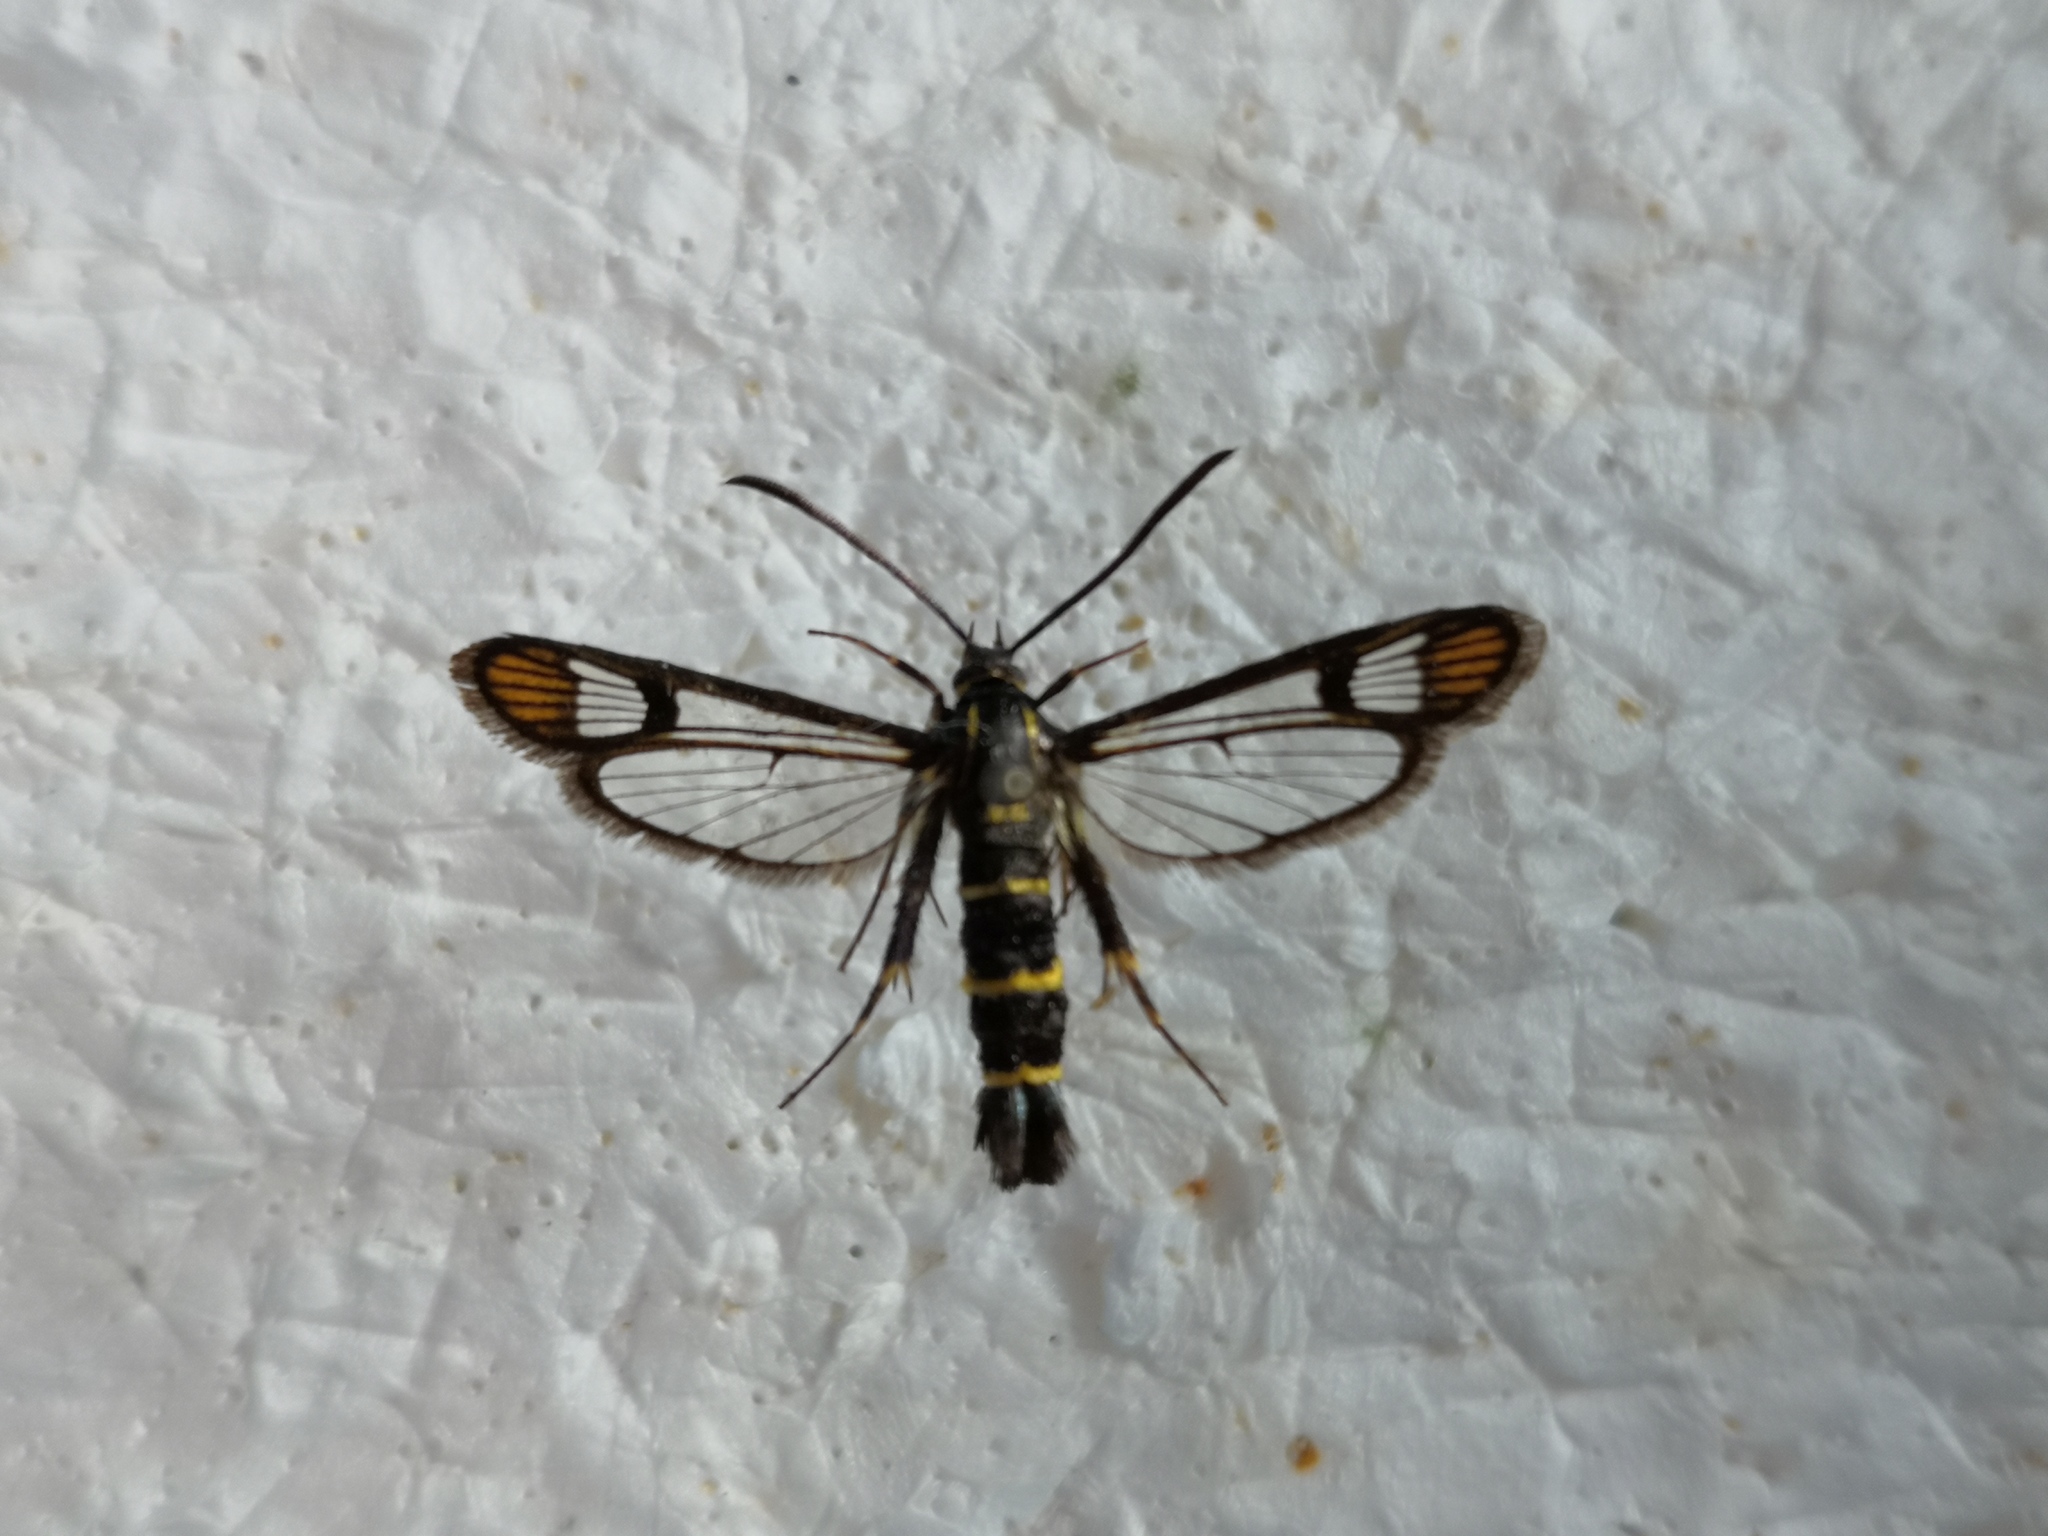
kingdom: Animalia
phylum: Arthropoda
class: Insecta
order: Lepidoptera
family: Sesiidae
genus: Synanthedon
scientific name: Synanthedon conopiformis
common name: Dale's oak clearwing
